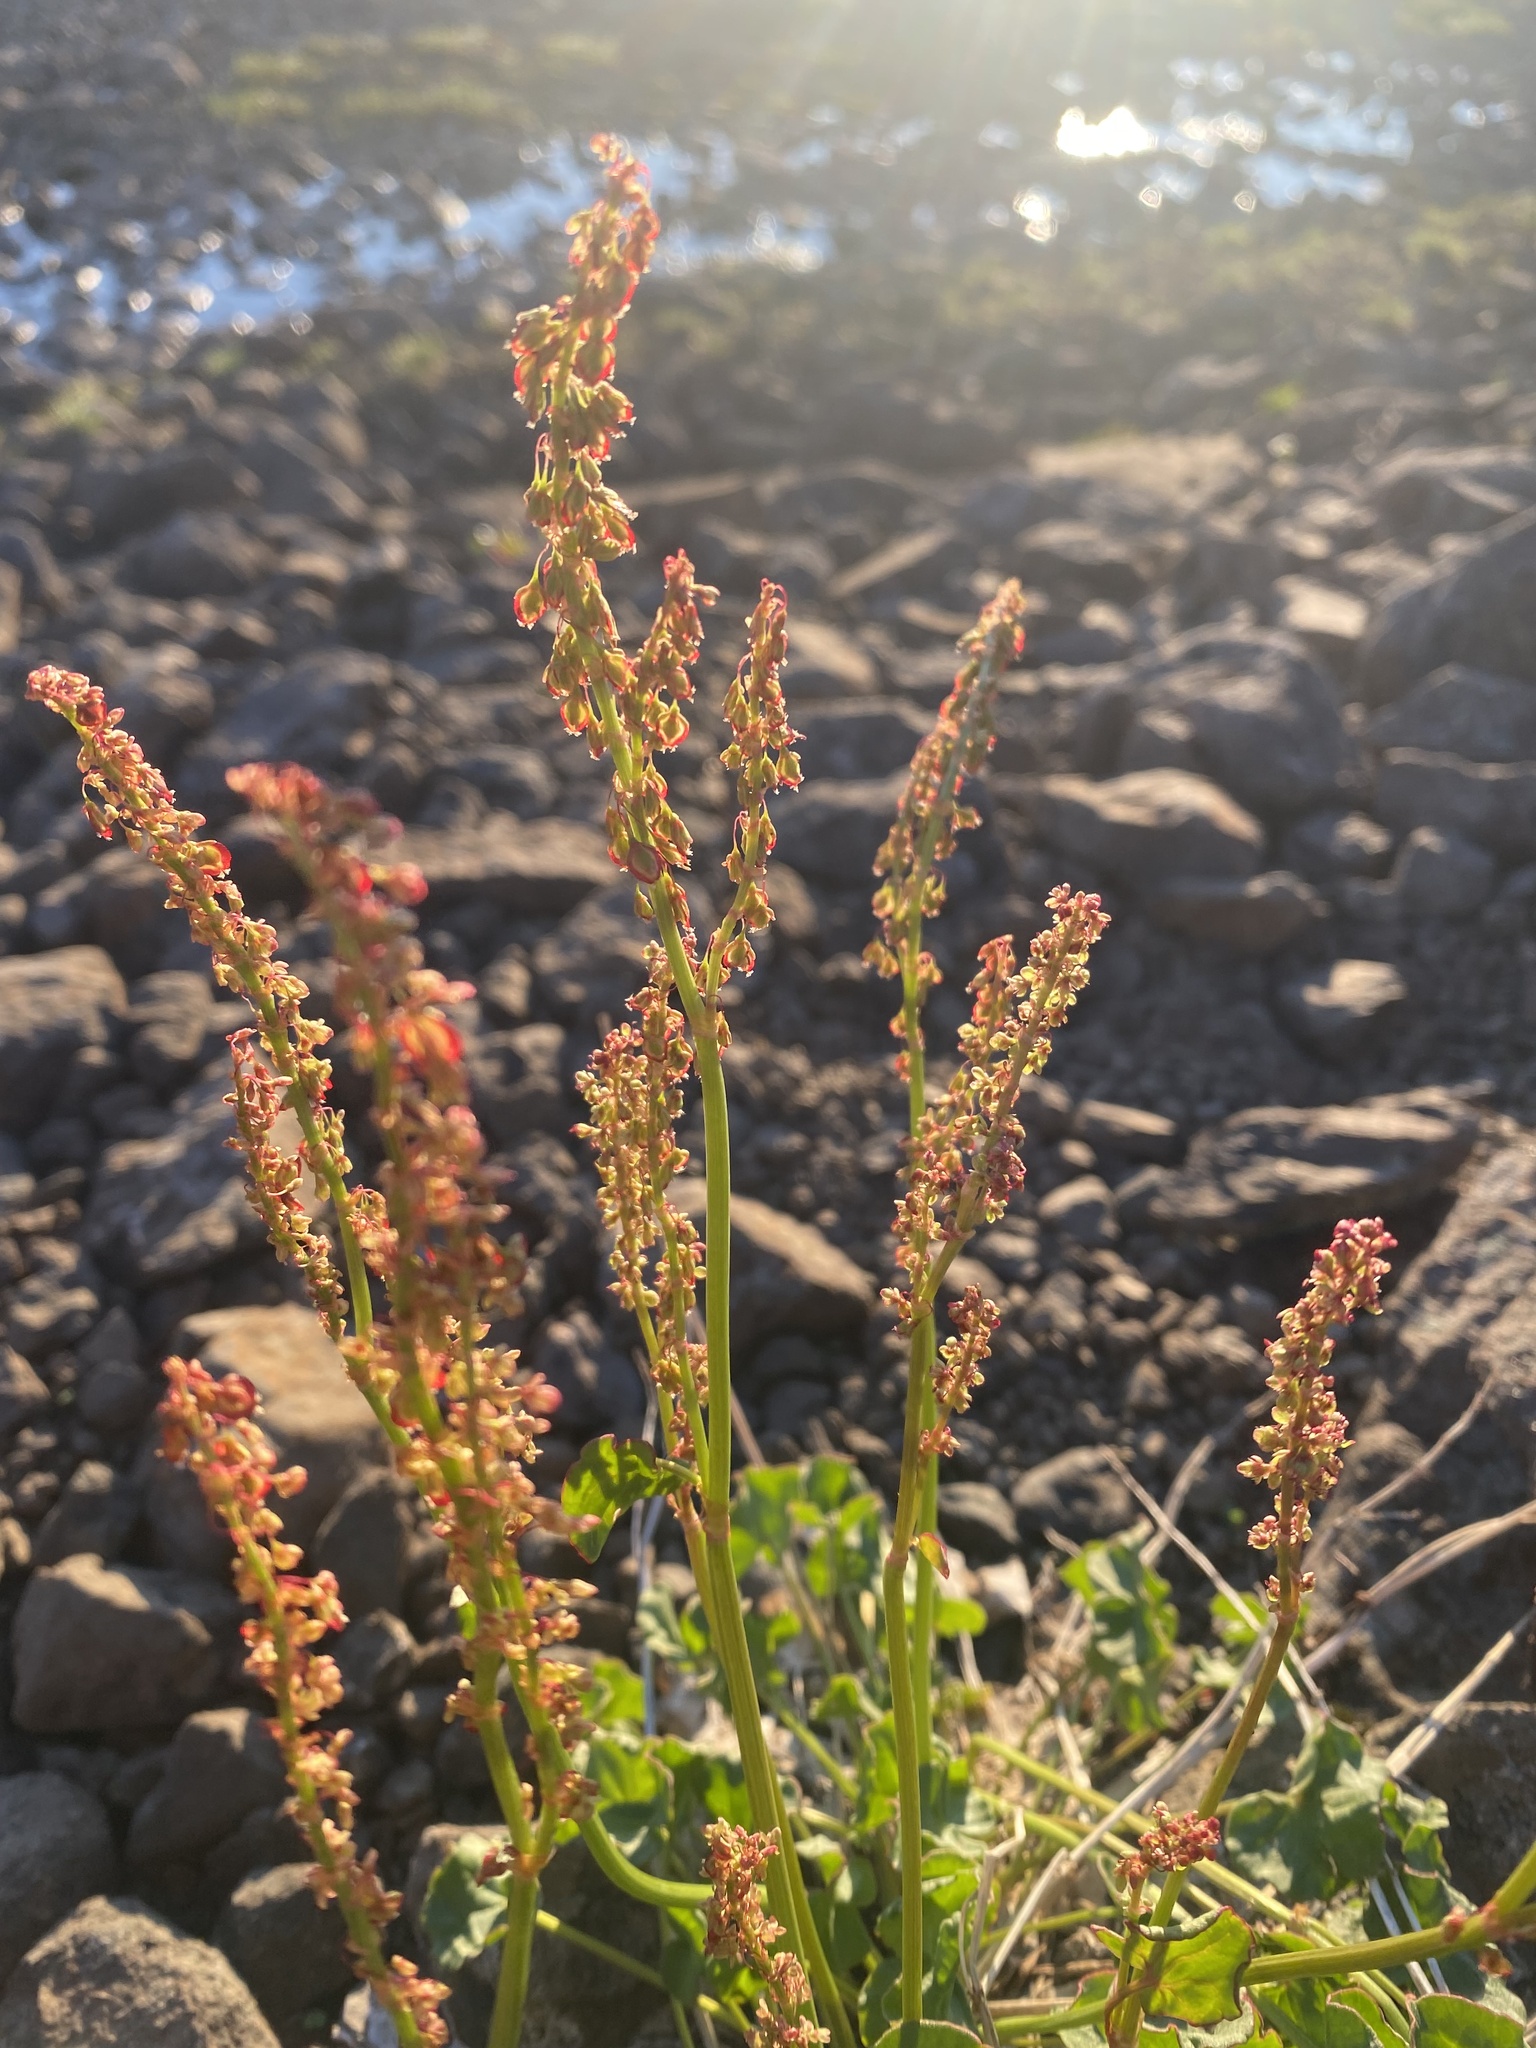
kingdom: Plantae
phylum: Tracheophyta
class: Magnoliopsida
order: Caryophyllales
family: Polygonaceae
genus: Oxyria
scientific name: Oxyria digyna
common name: Alpine mountain-sorrel
